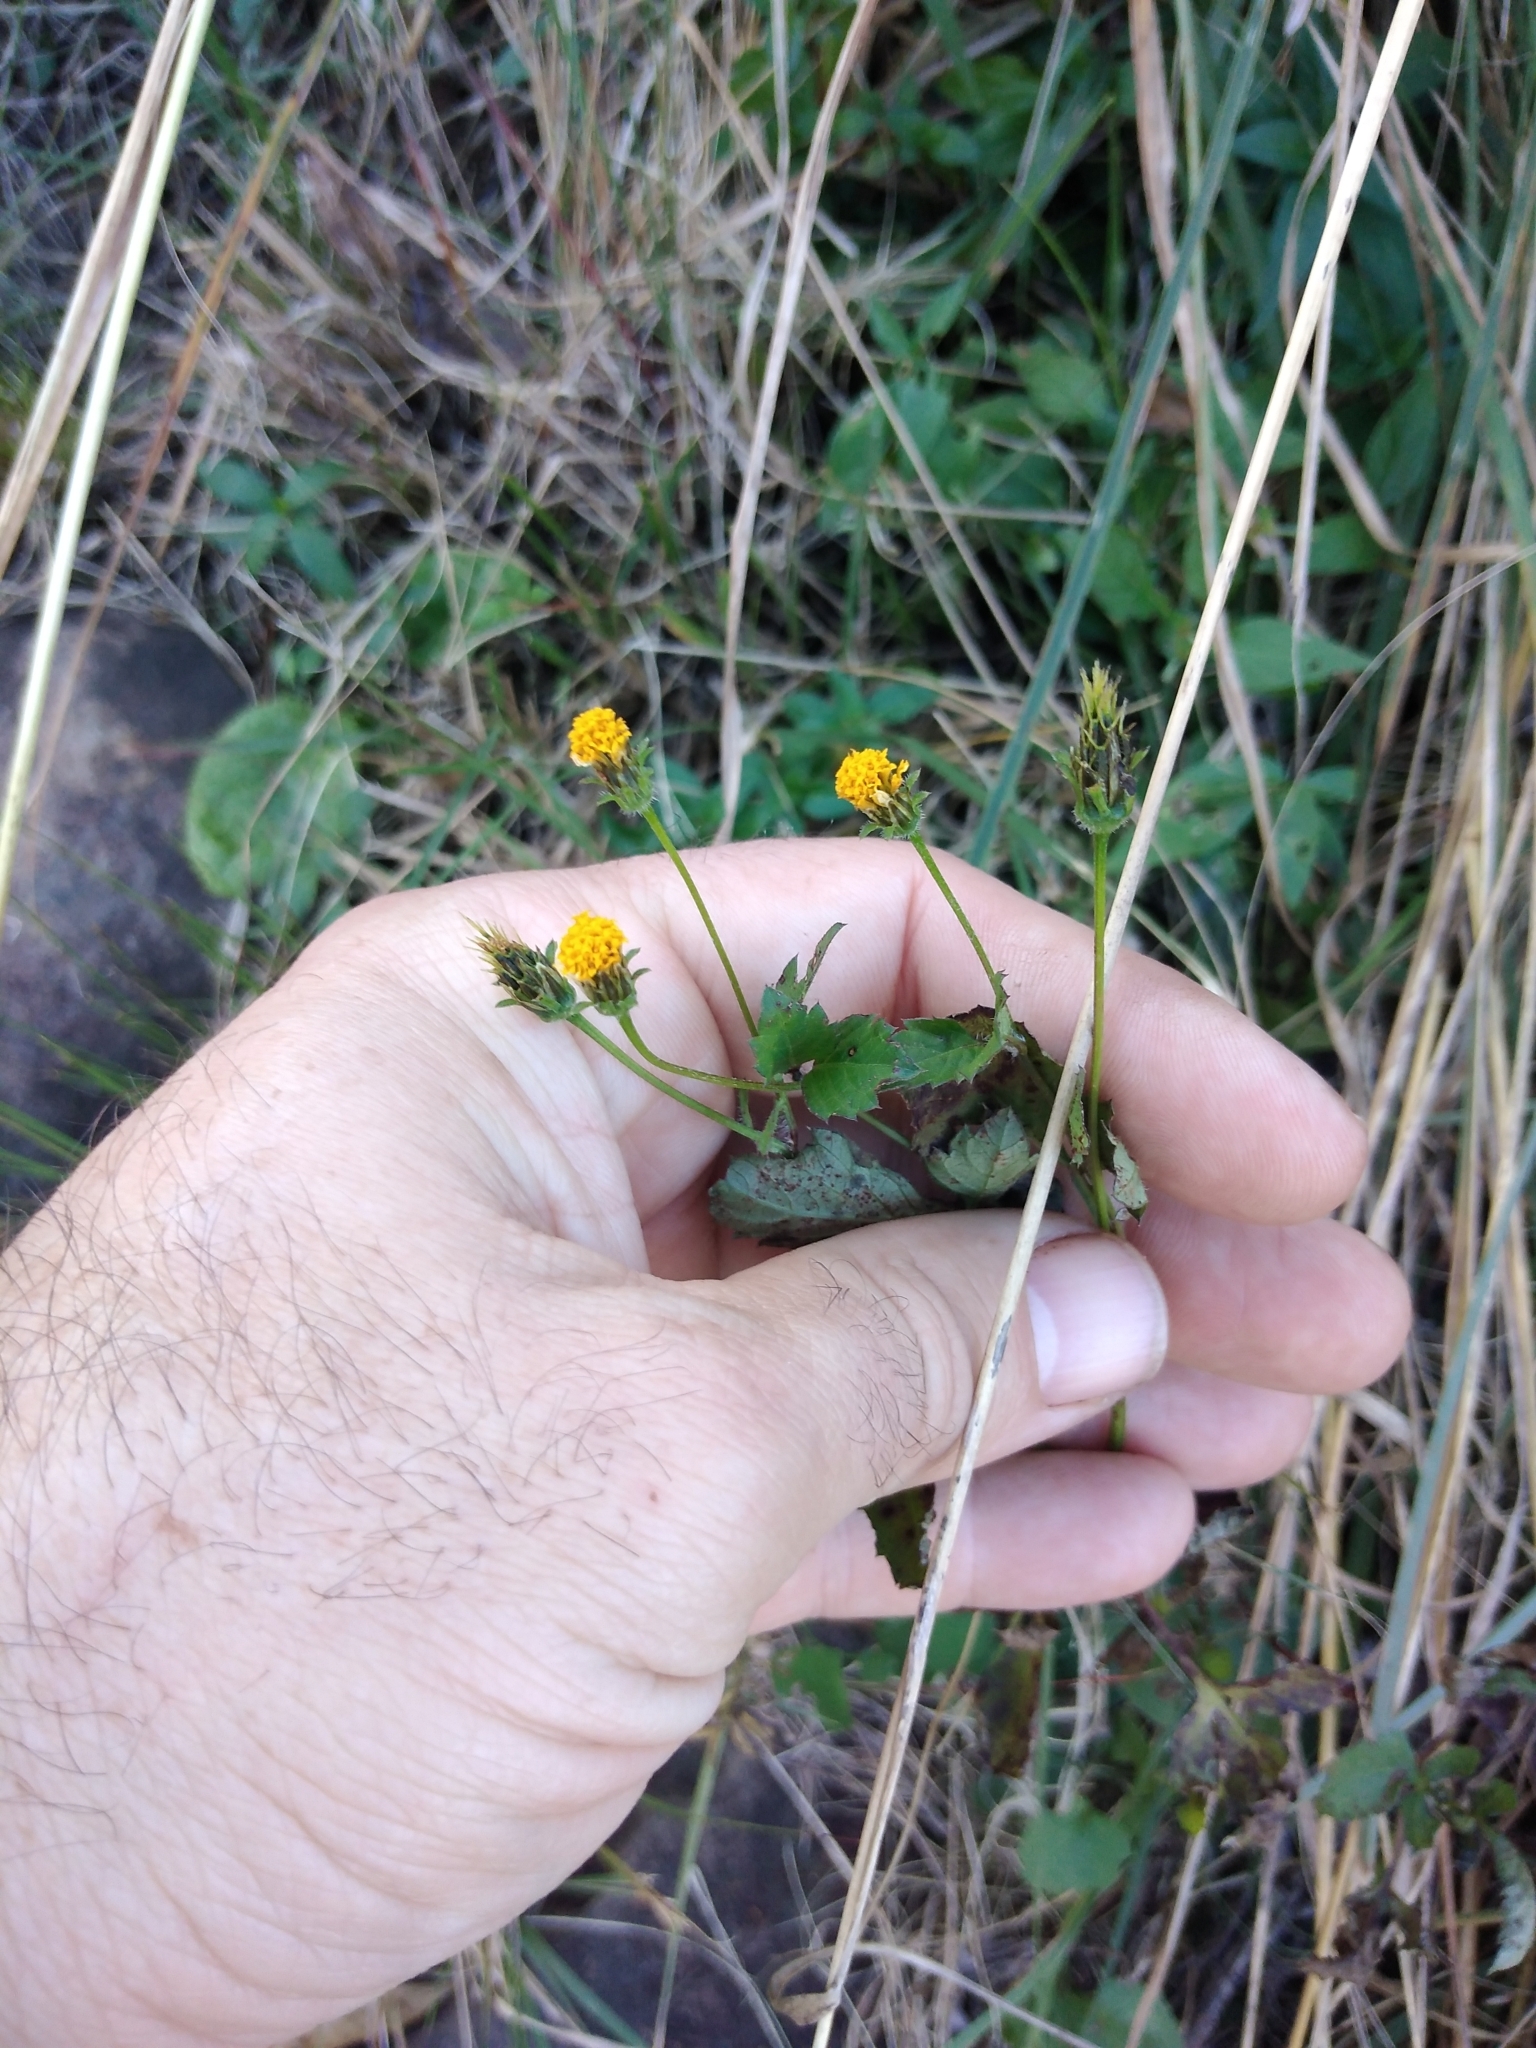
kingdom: Plantae
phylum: Tracheophyta
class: Magnoliopsida
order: Asterales
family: Asteraceae
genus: Bidens
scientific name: Bidens pilosa
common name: Black-jack
